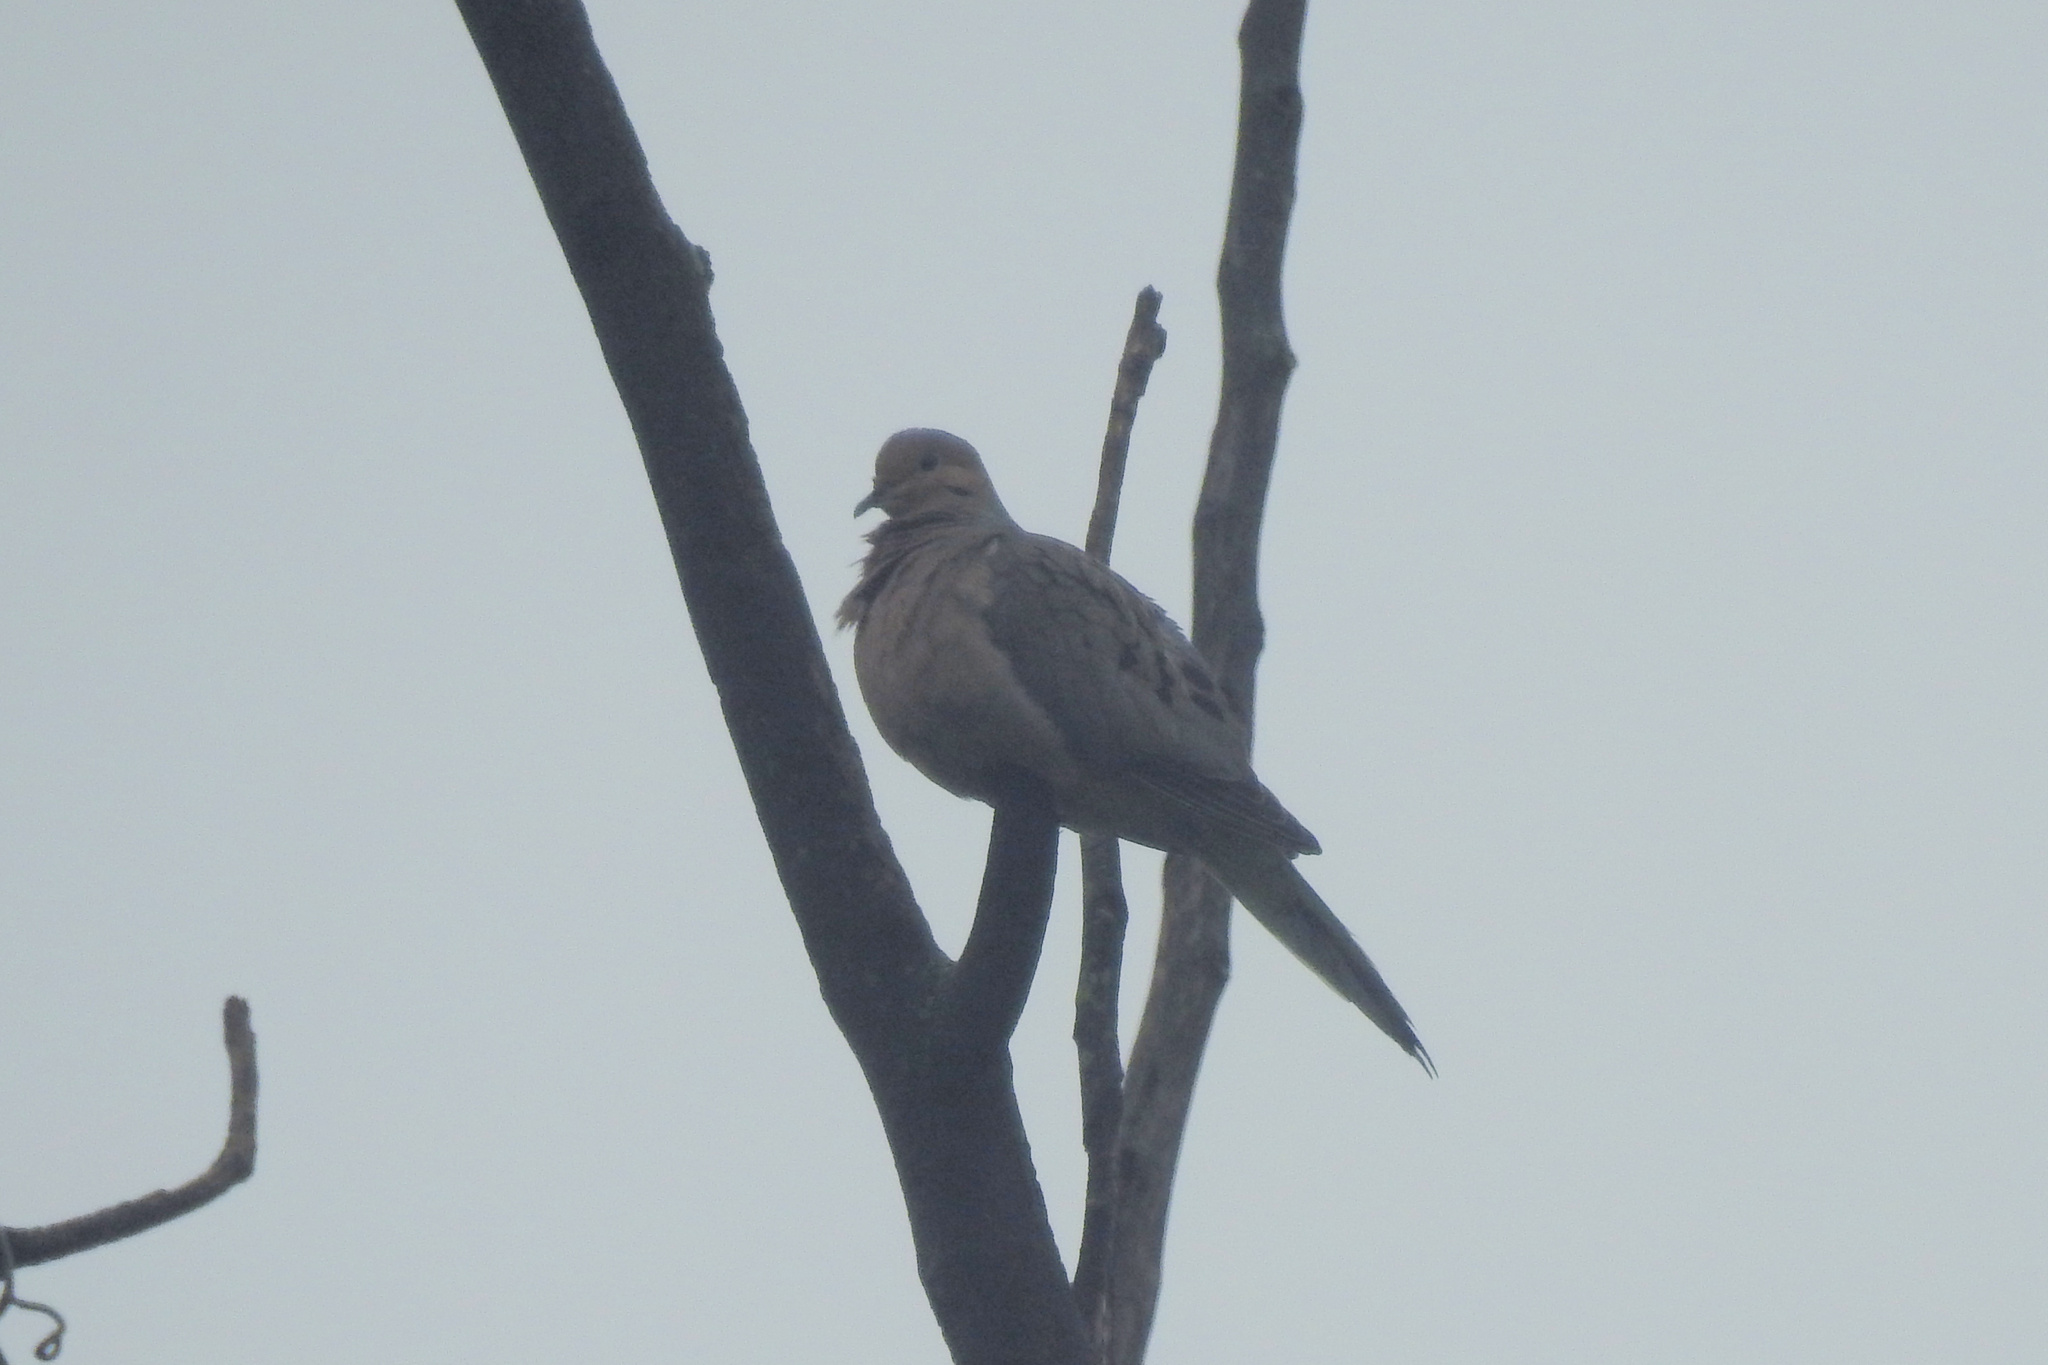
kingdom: Animalia
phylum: Chordata
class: Aves
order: Columbiformes
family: Columbidae
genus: Zenaida
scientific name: Zenaida macroura
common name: Mourning dove
